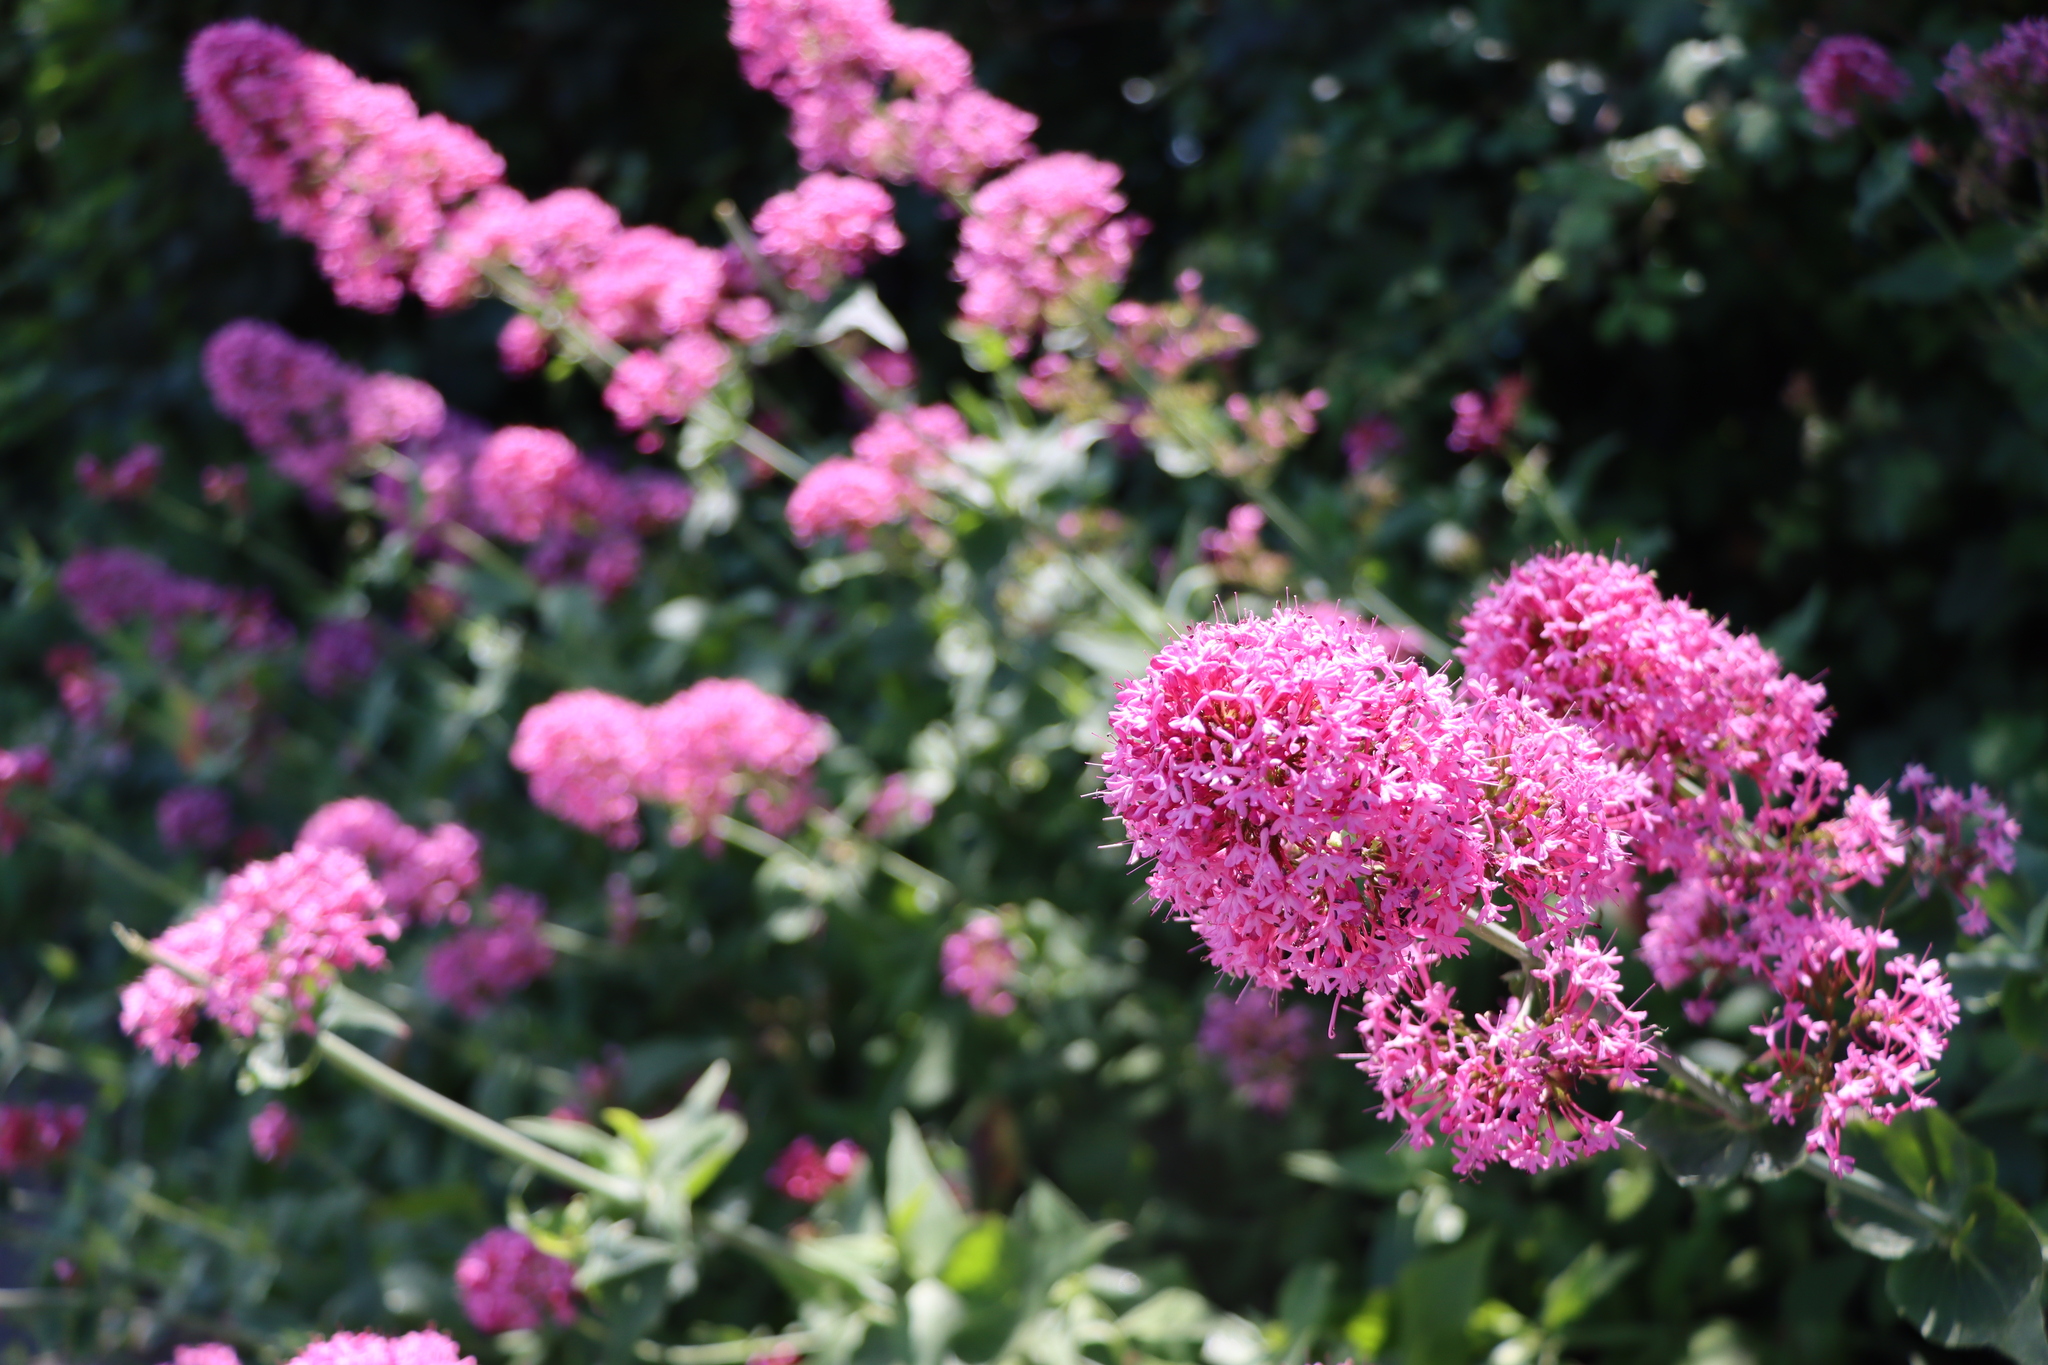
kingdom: Plantae
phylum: Tracheophyta
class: Magnoliopsida
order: Dipsacales
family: Caprifoliaceae
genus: Centranthus
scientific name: Centranthus ruber
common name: Red valerian
